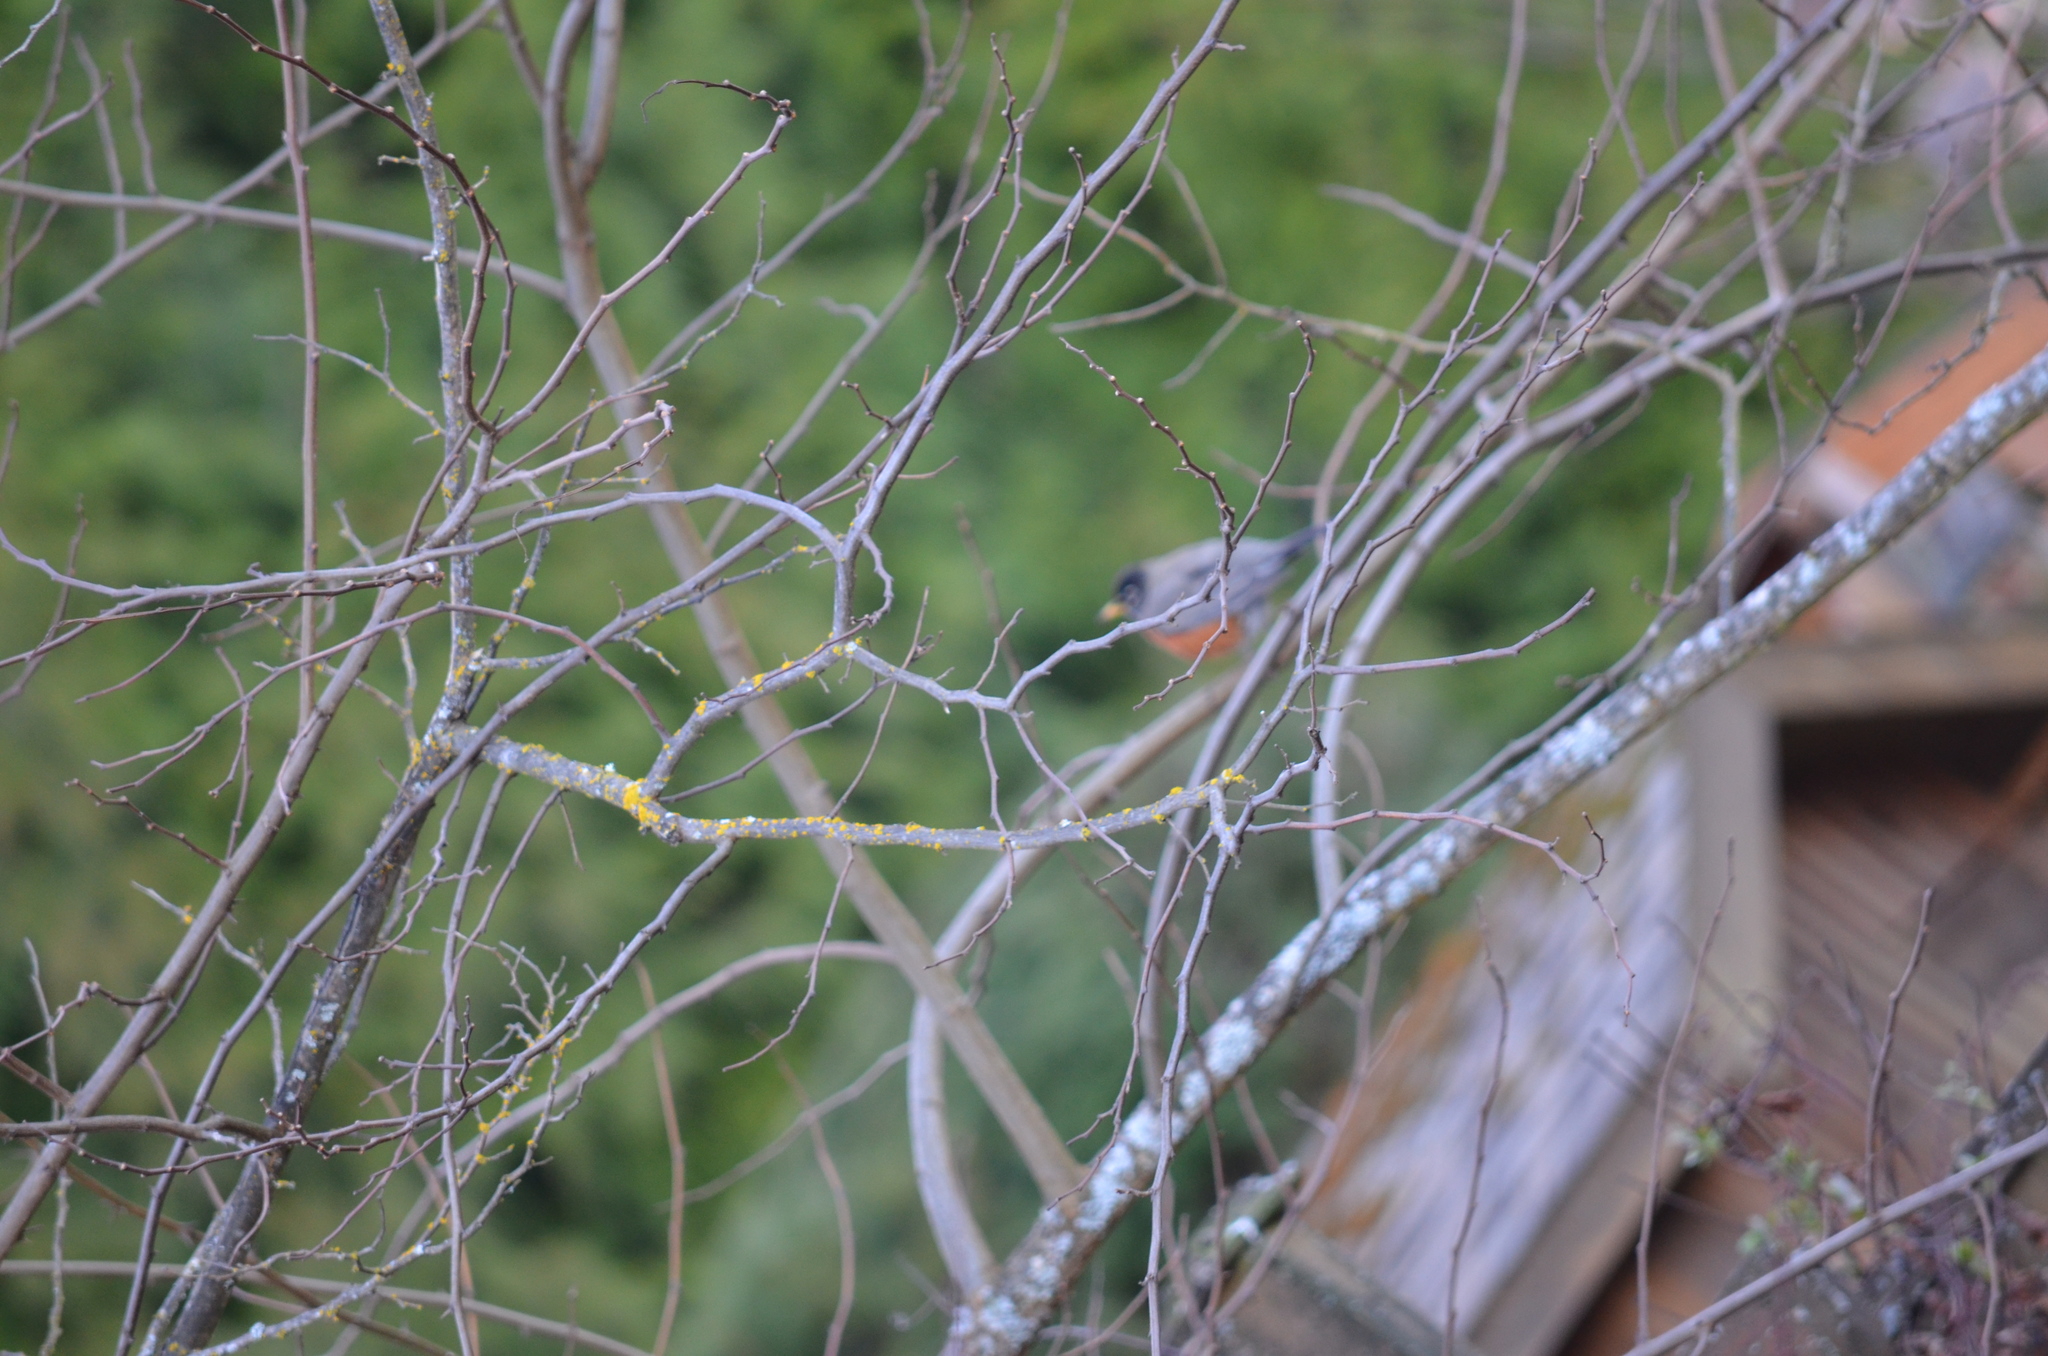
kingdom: Animalia
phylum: Chordata
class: Aves
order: Passeriformes
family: Turdidae
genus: Turdus
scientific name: Turdus migratorius
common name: American robin
